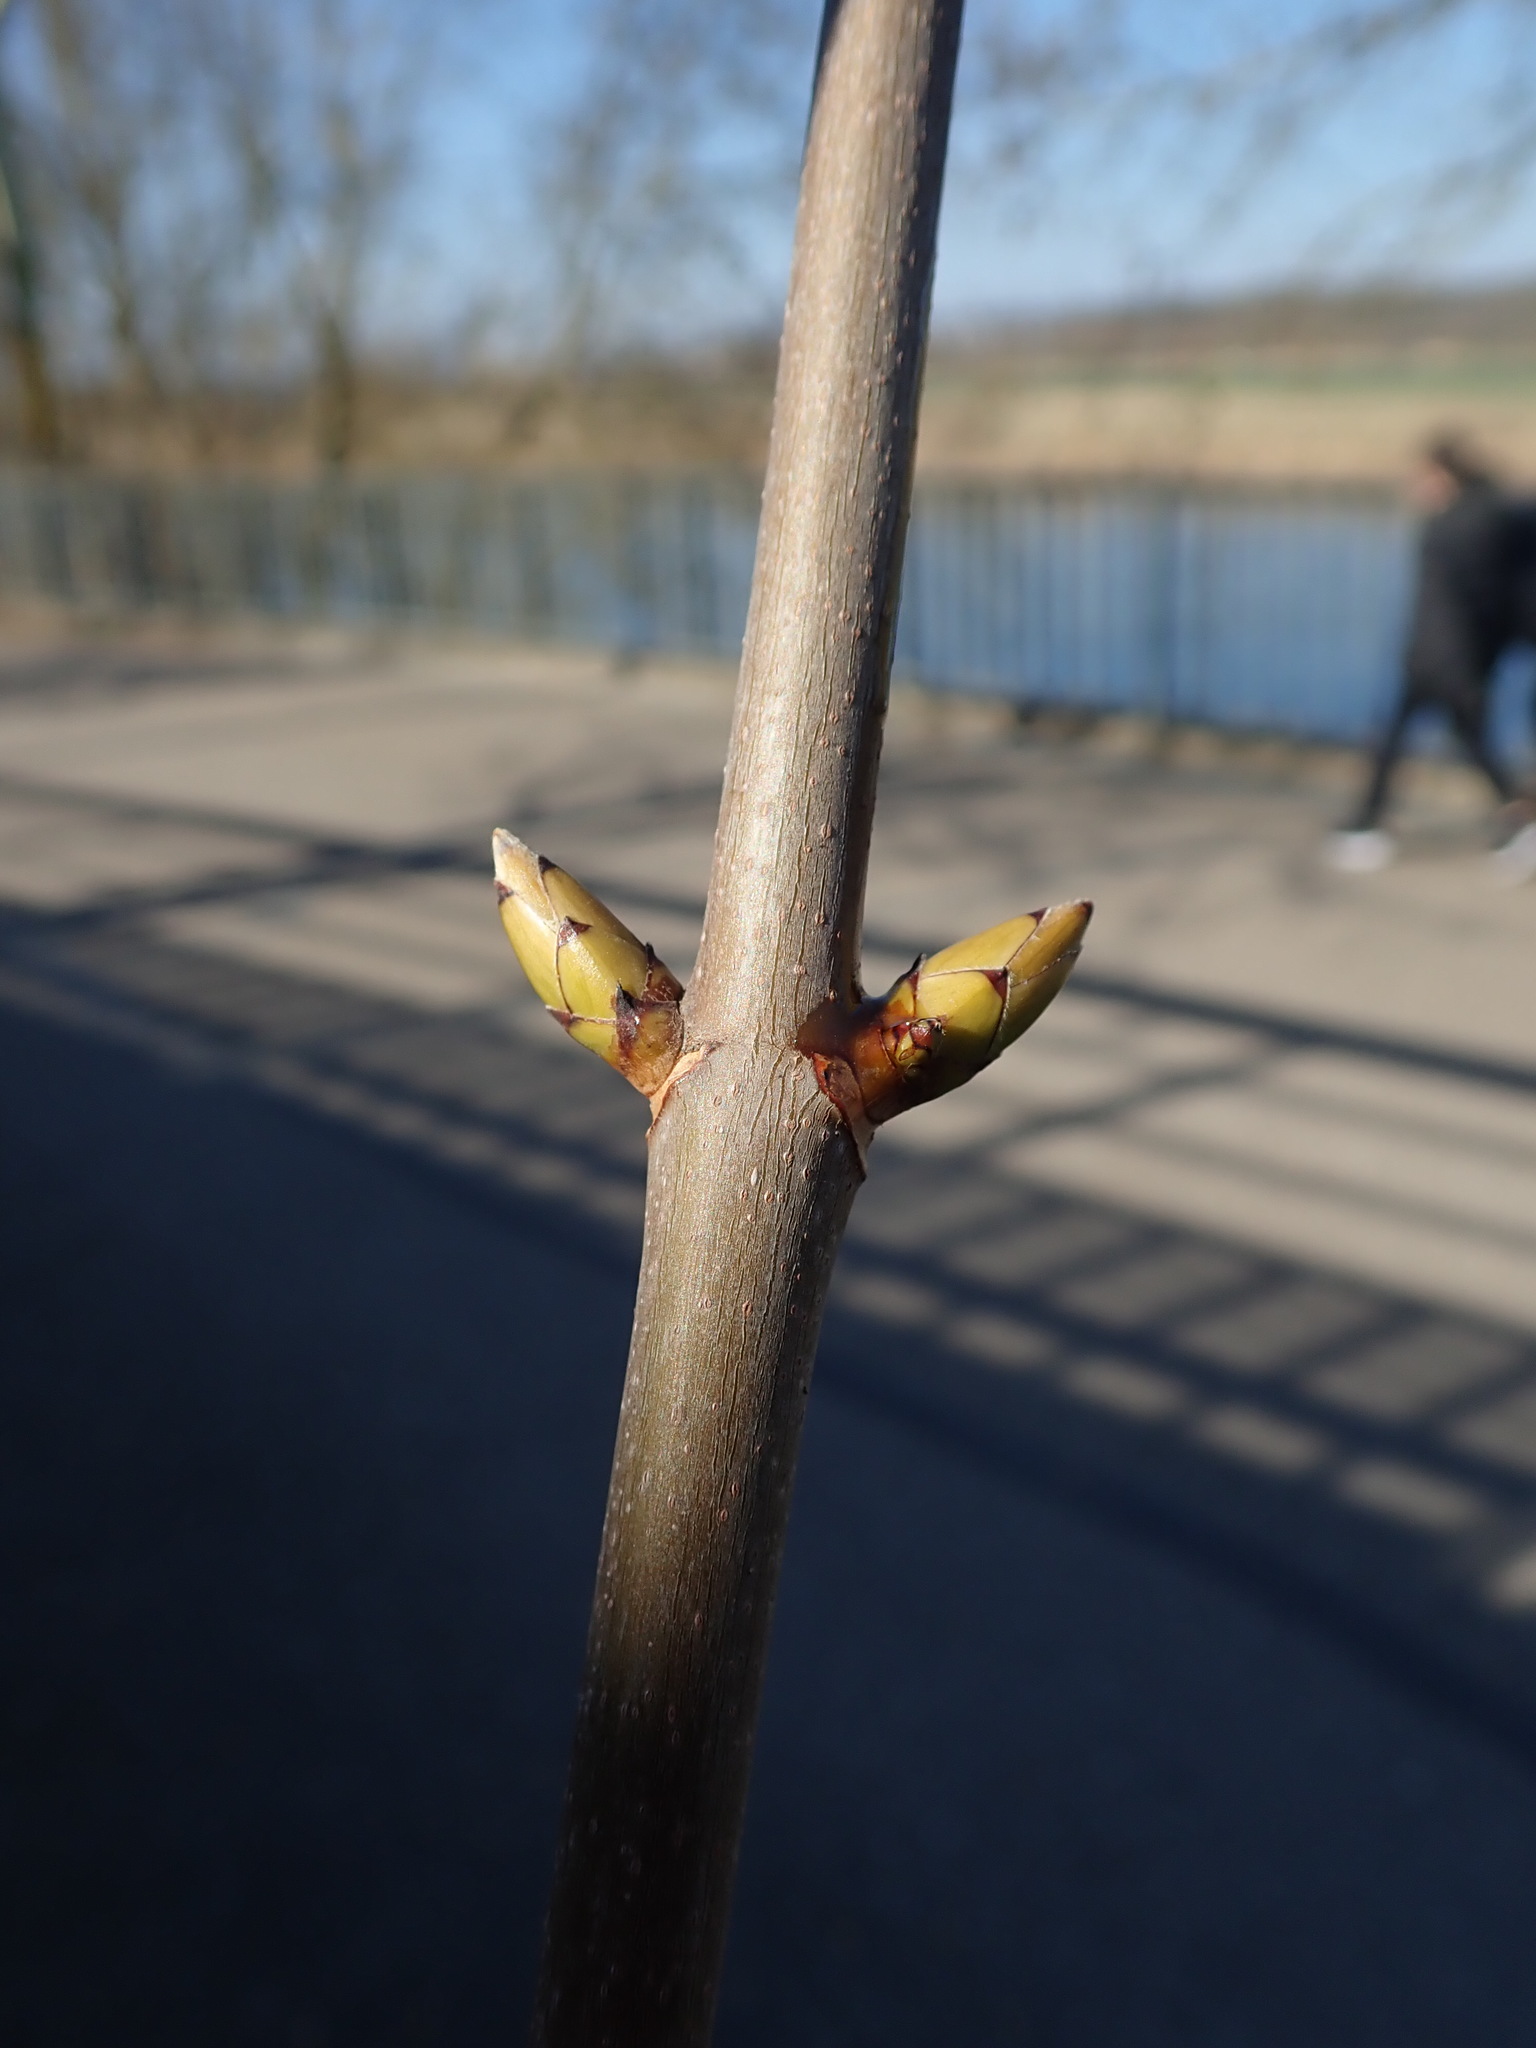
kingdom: Plantae
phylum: Tracheophyta
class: Magnoliopsida
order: Sapindales
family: Sapindaceae
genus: Acer
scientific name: Acer pseudoplatanus
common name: Sycamore
